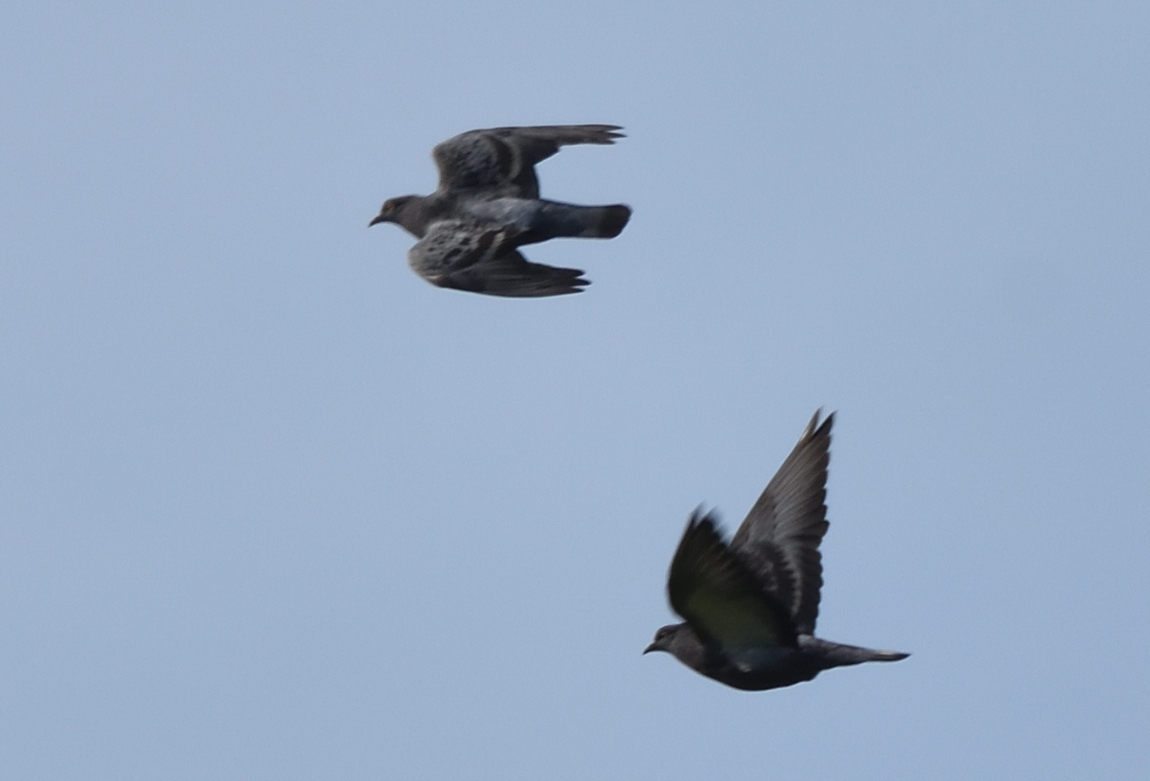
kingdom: Animalia
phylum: Chordata
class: Aves
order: Columbiformes
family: Columbidae
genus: Columba
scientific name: Columba livia
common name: Rock pigeon
